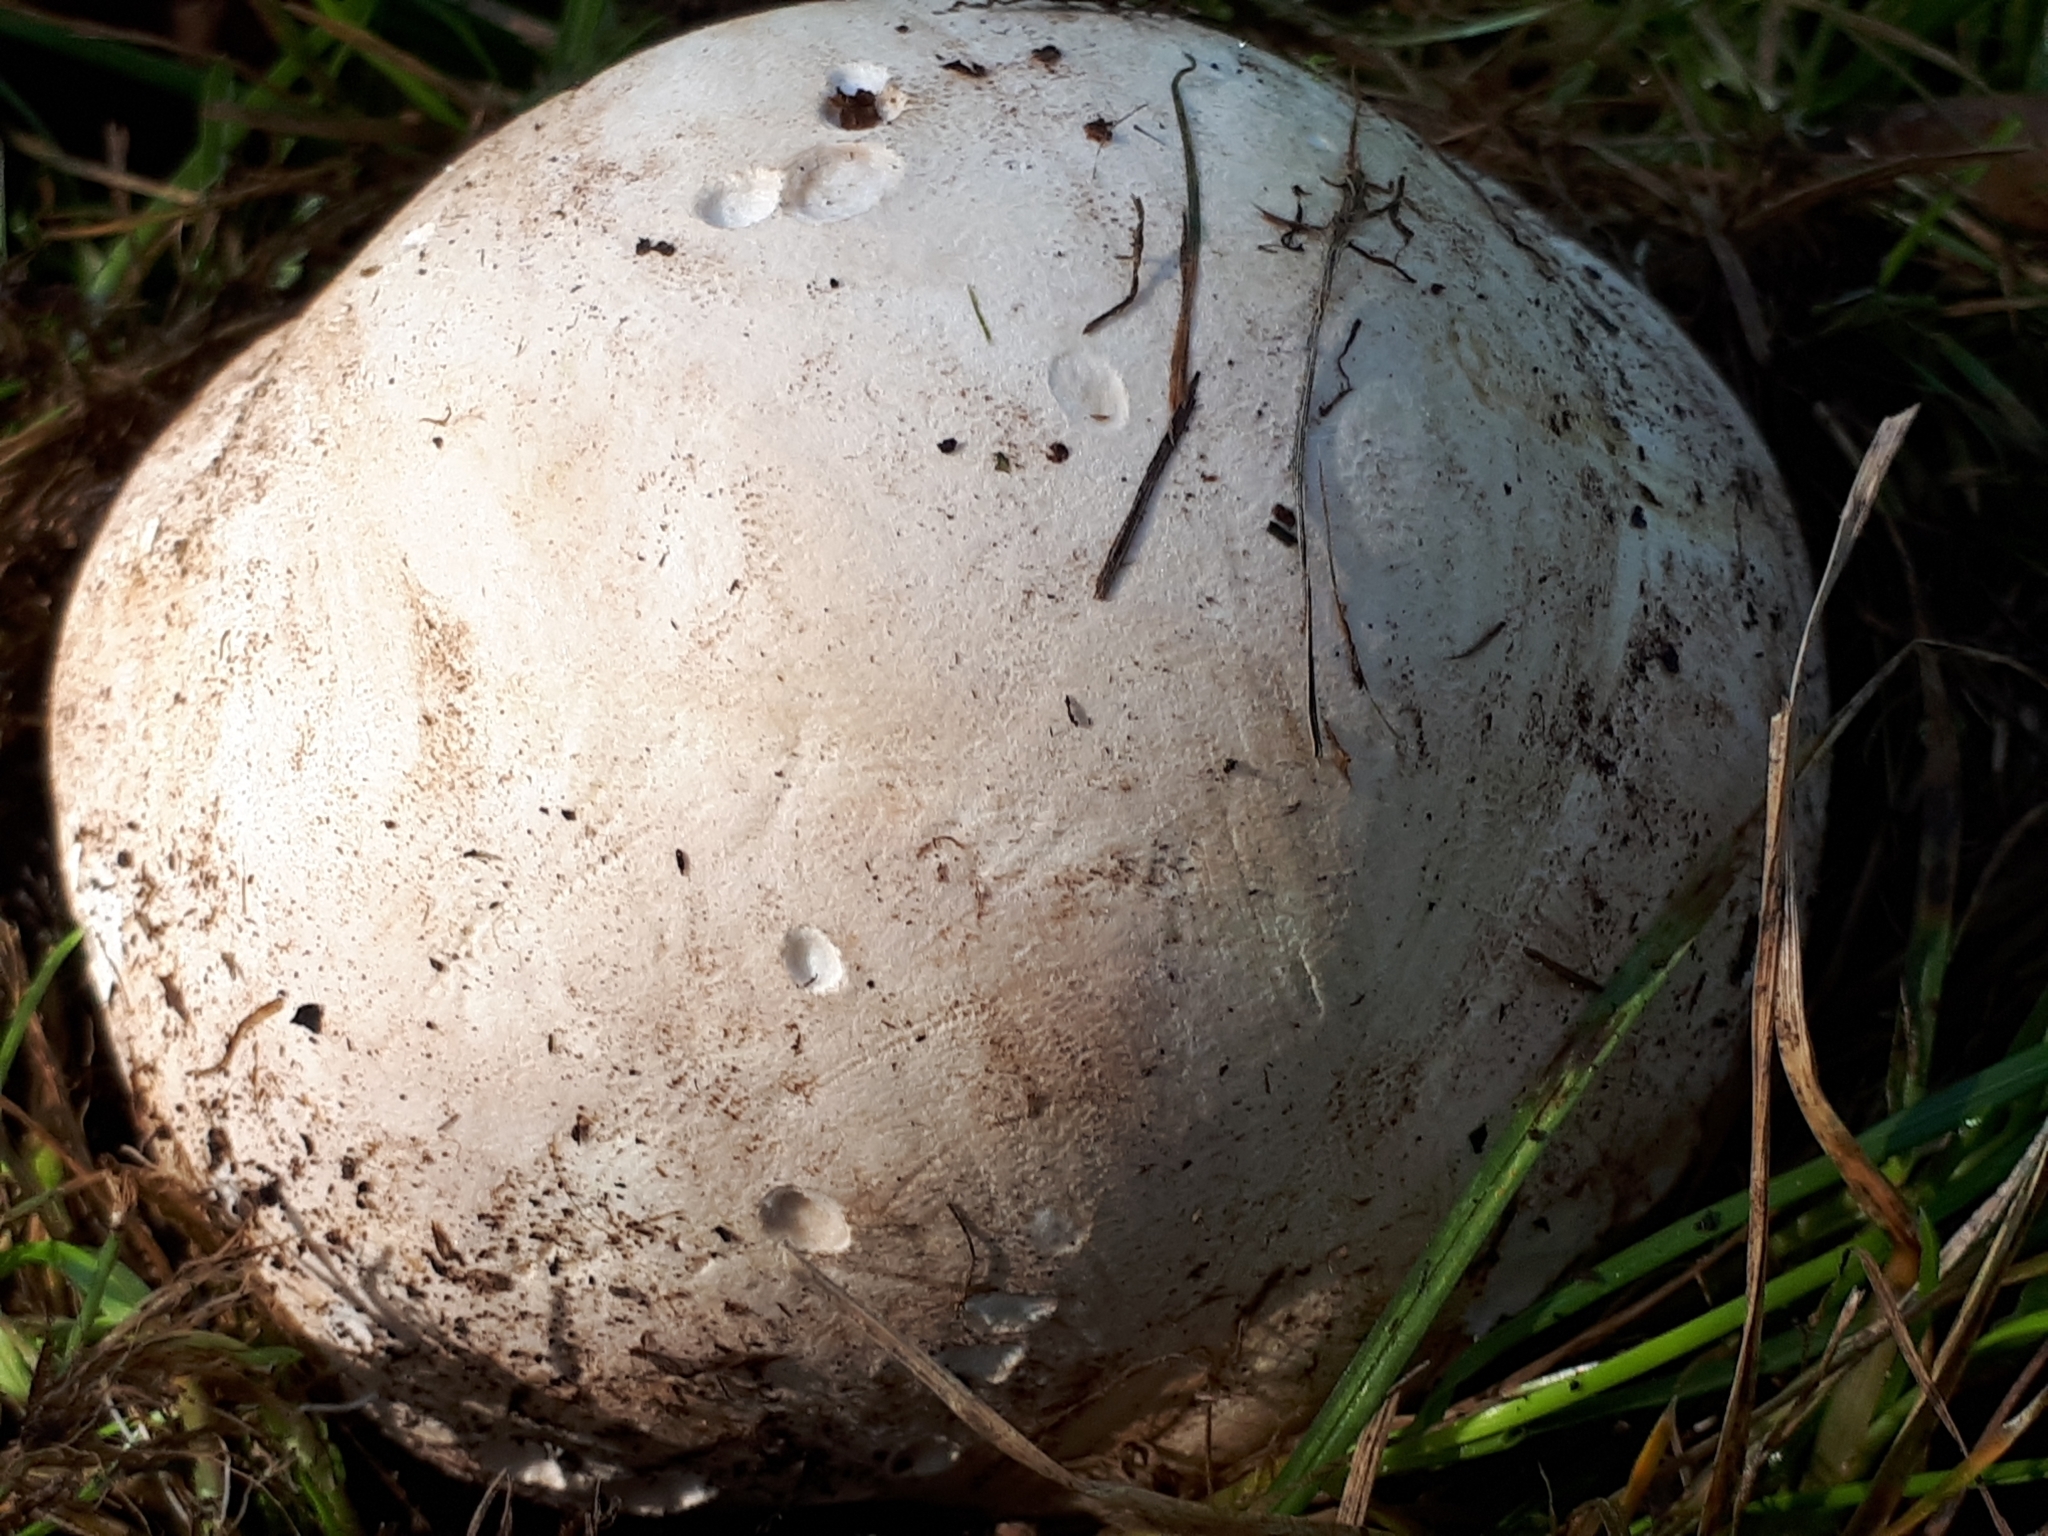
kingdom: Fungi
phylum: Basidiomycota
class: Agaricomycetes
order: Agaricales
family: Lycoperdaceae
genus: Calvatia
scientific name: Calvatia gigantea
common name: Giant puffball
